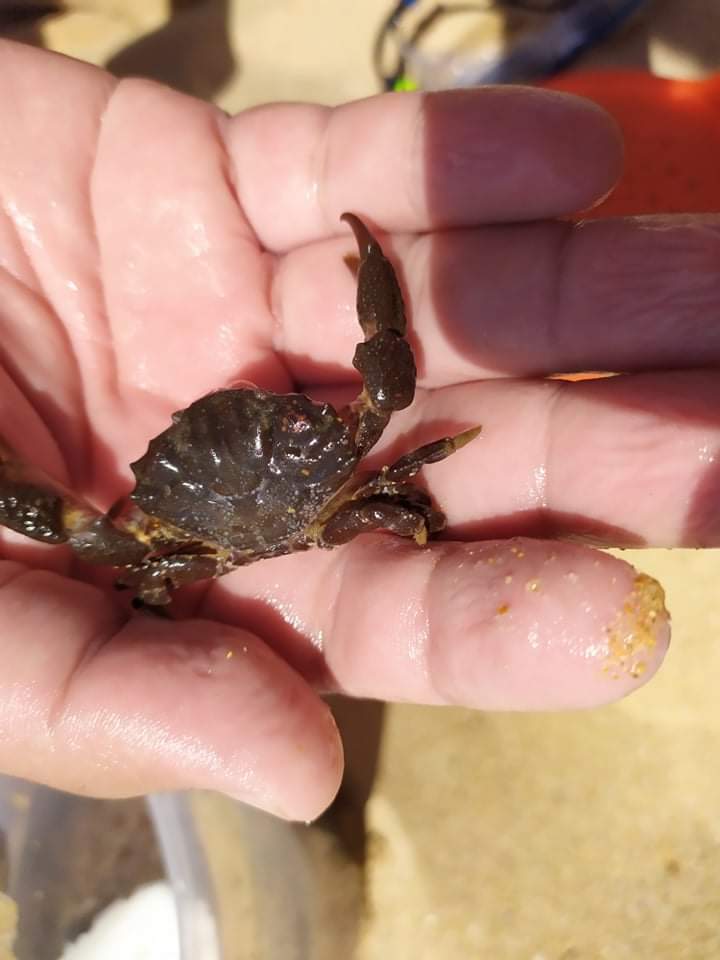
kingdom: Animalia
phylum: Arthropoda
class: Malacostraca
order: Decapoda
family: Xanthidae
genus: Xantho
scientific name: Xantho hydrophilus
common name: Montagu's crab
